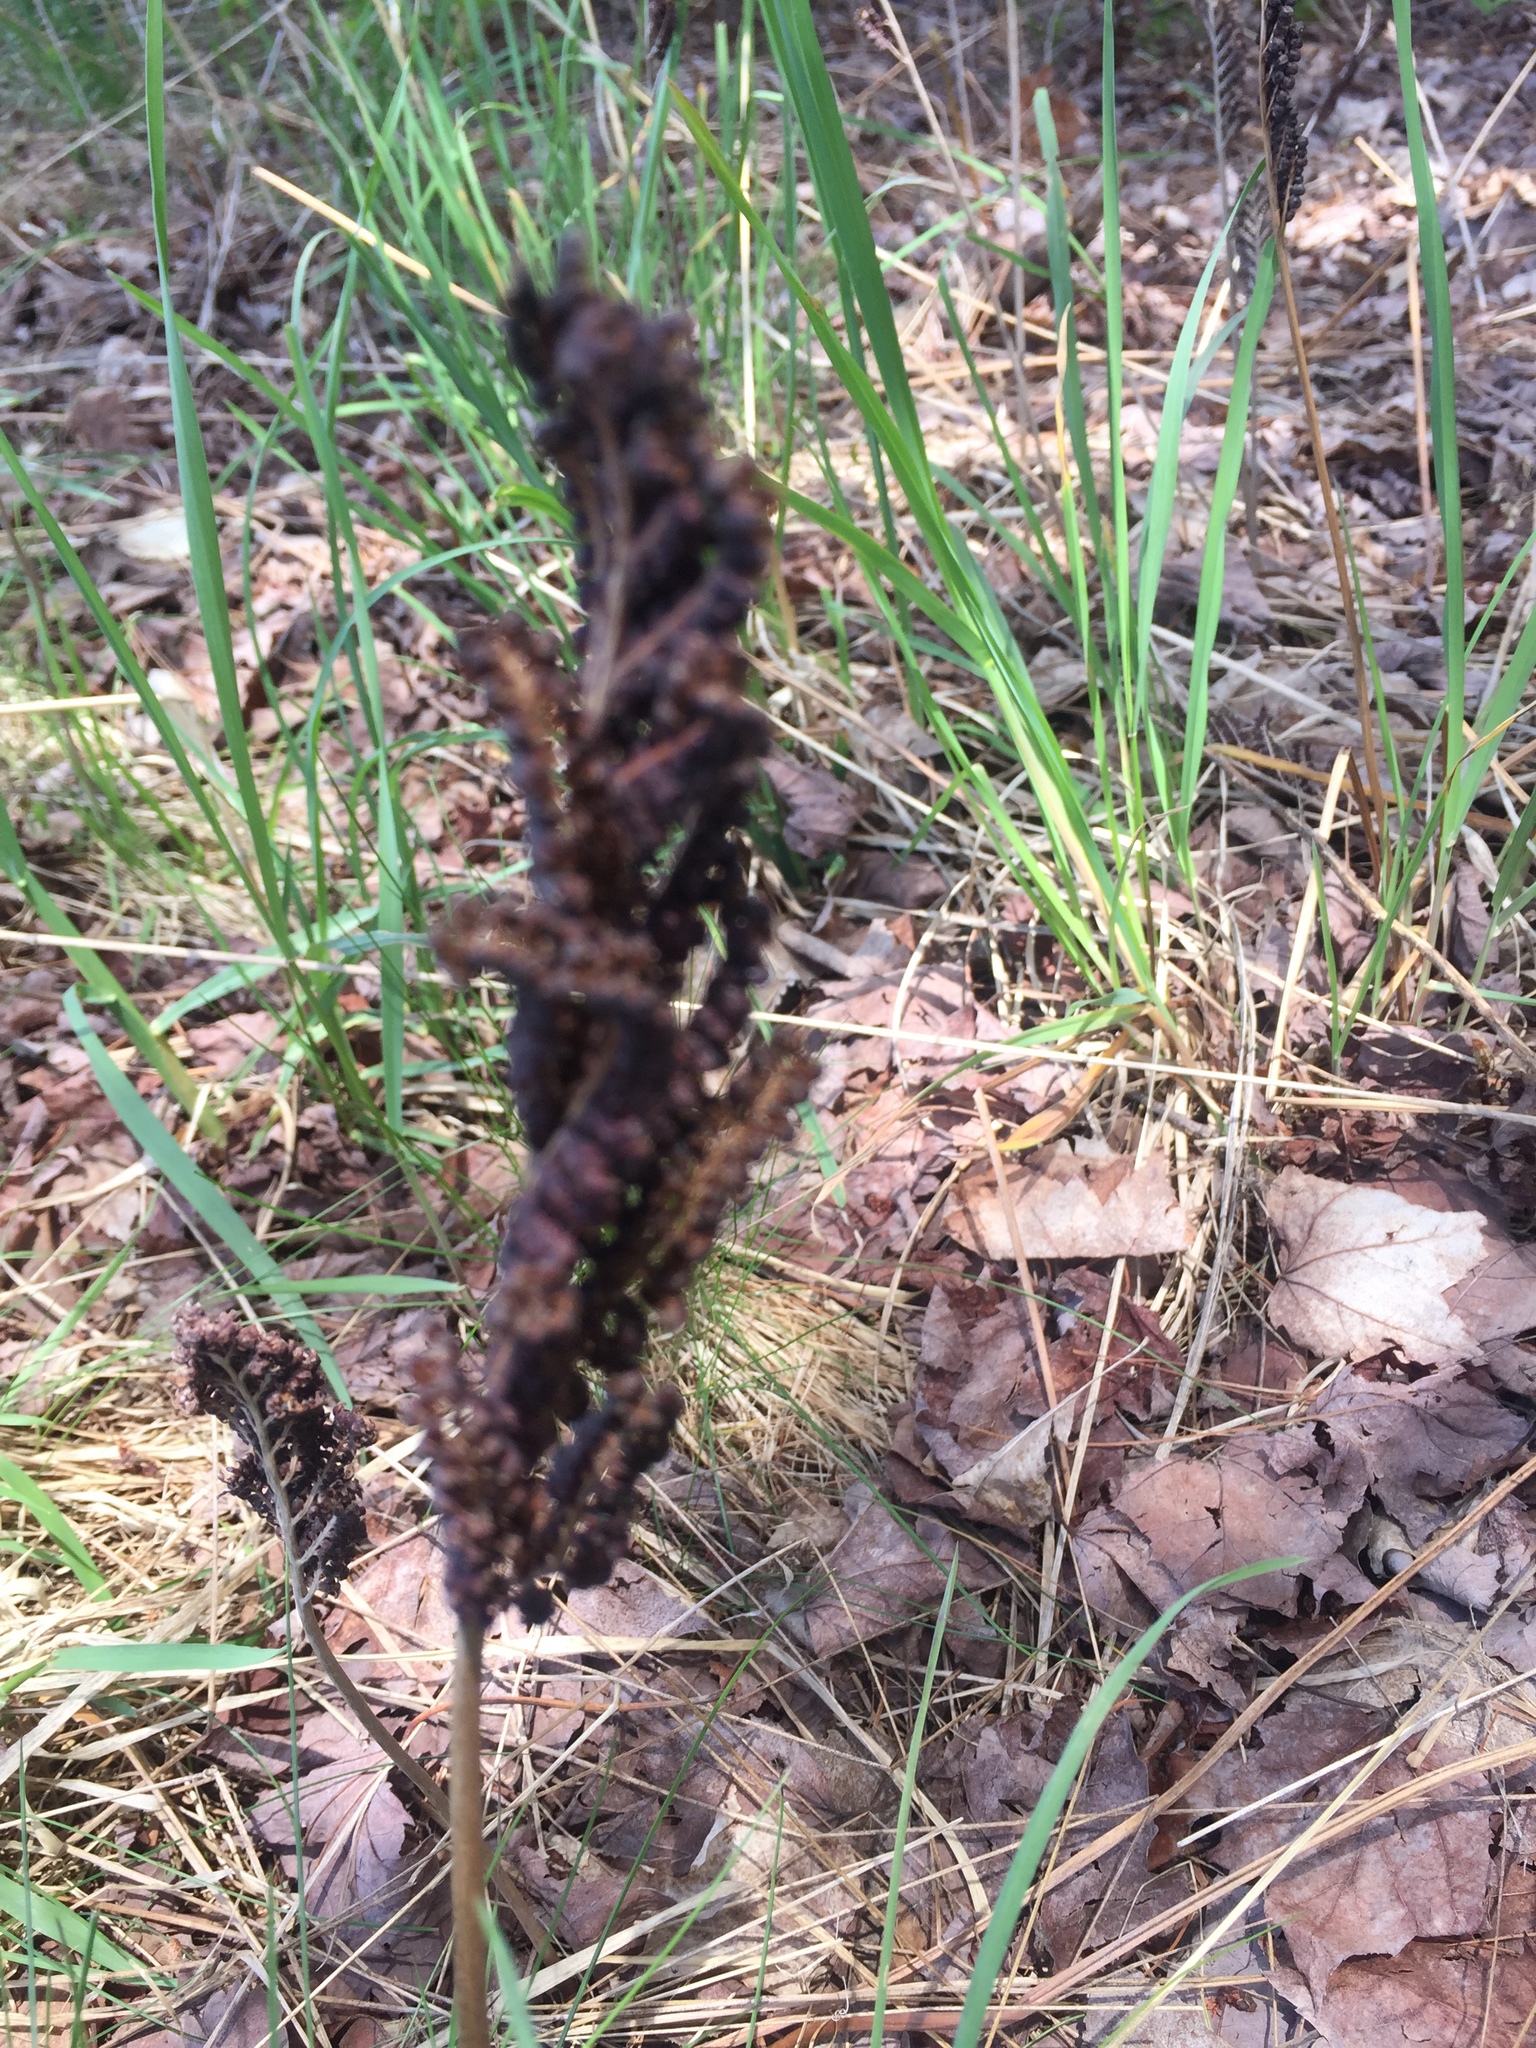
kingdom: Plantae
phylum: Tracheophyta
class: Polypodiopsida
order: Polypodiales
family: Onocleaceae
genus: Onoclea
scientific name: Onoclea sensibilis
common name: Sensitive fern
